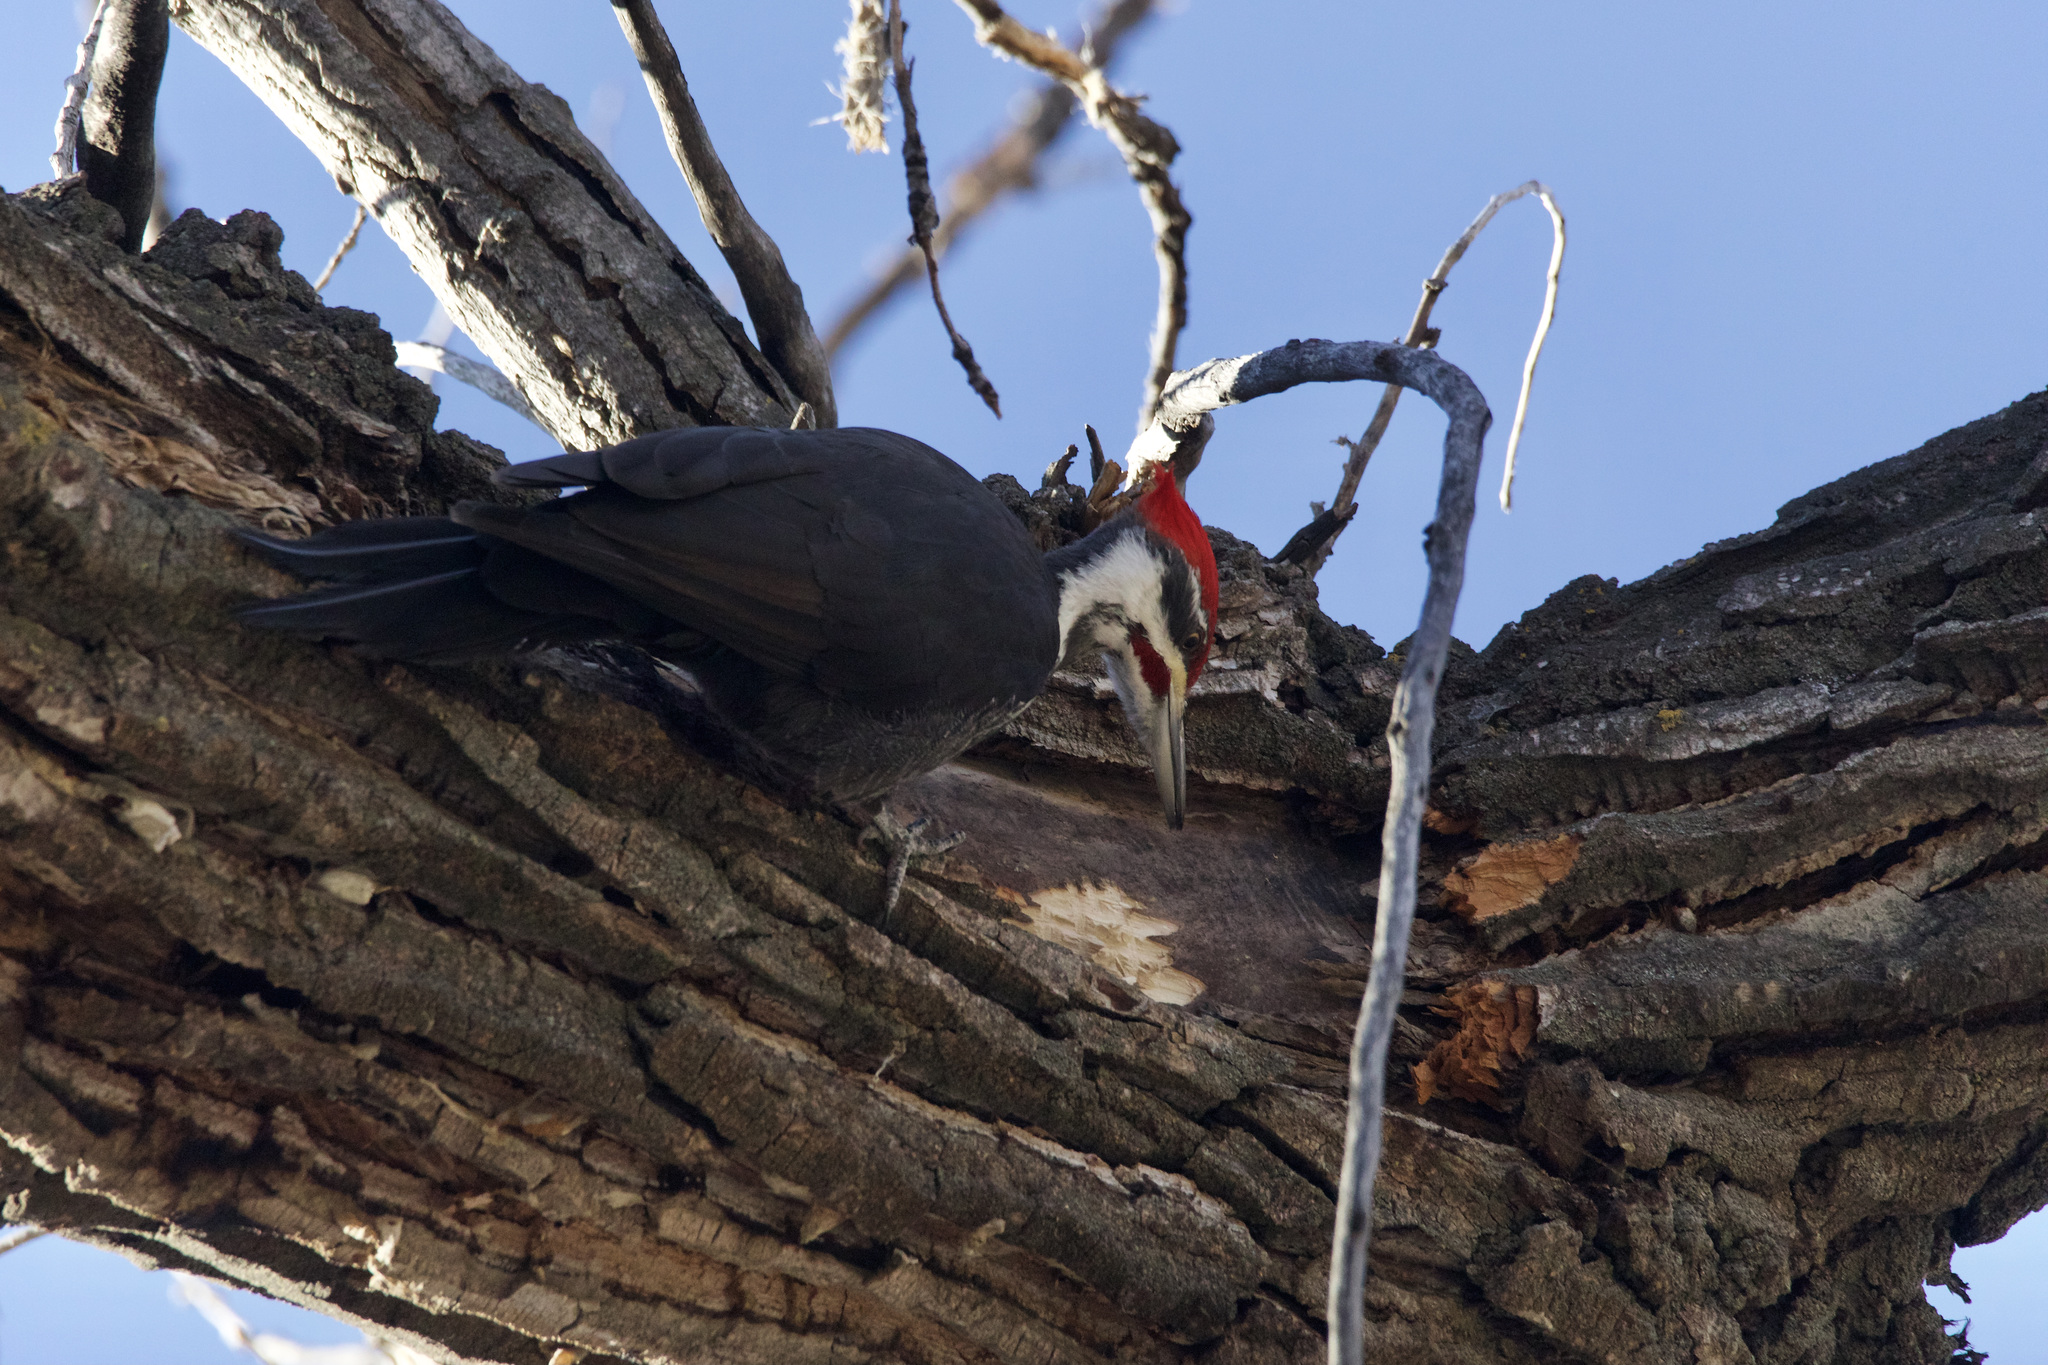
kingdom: Animalia
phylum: Chordata
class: Aves
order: Piciformes
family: Picidae
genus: Dryocopus
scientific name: Dryocopus pileatus
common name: Pileated woodpecker
